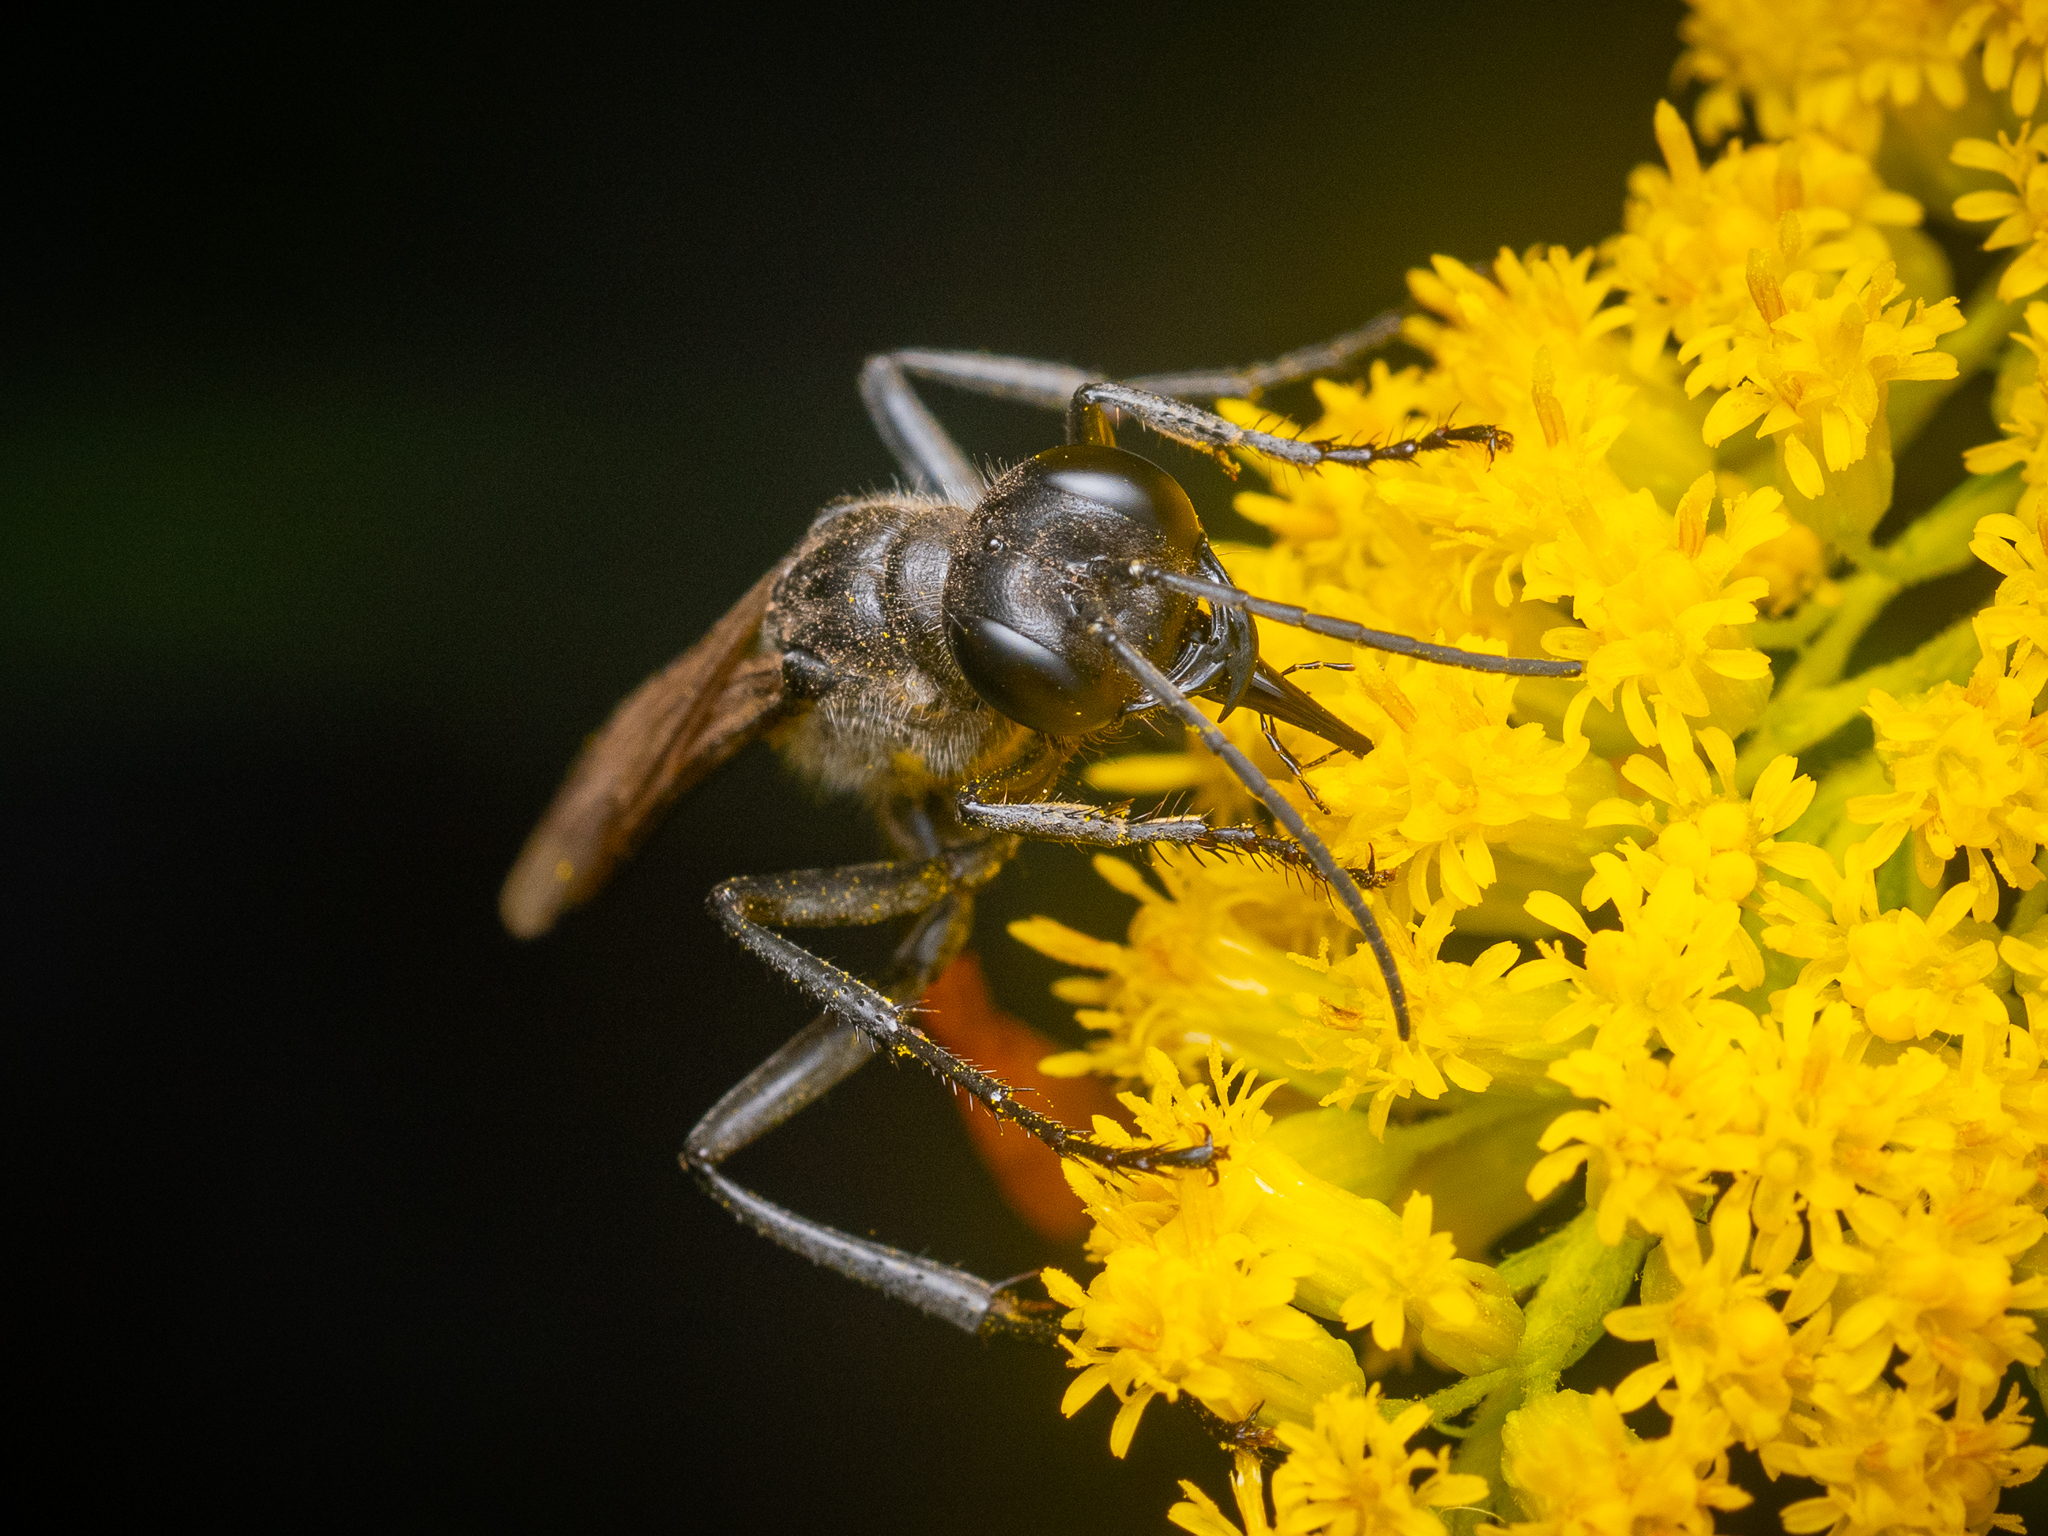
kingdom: Animalia
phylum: Arthropoda
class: Insecta
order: Hymenoptera
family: Sphecidae
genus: Ammophila
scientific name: Ammophila sabulosa
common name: Red banded sand wasp
